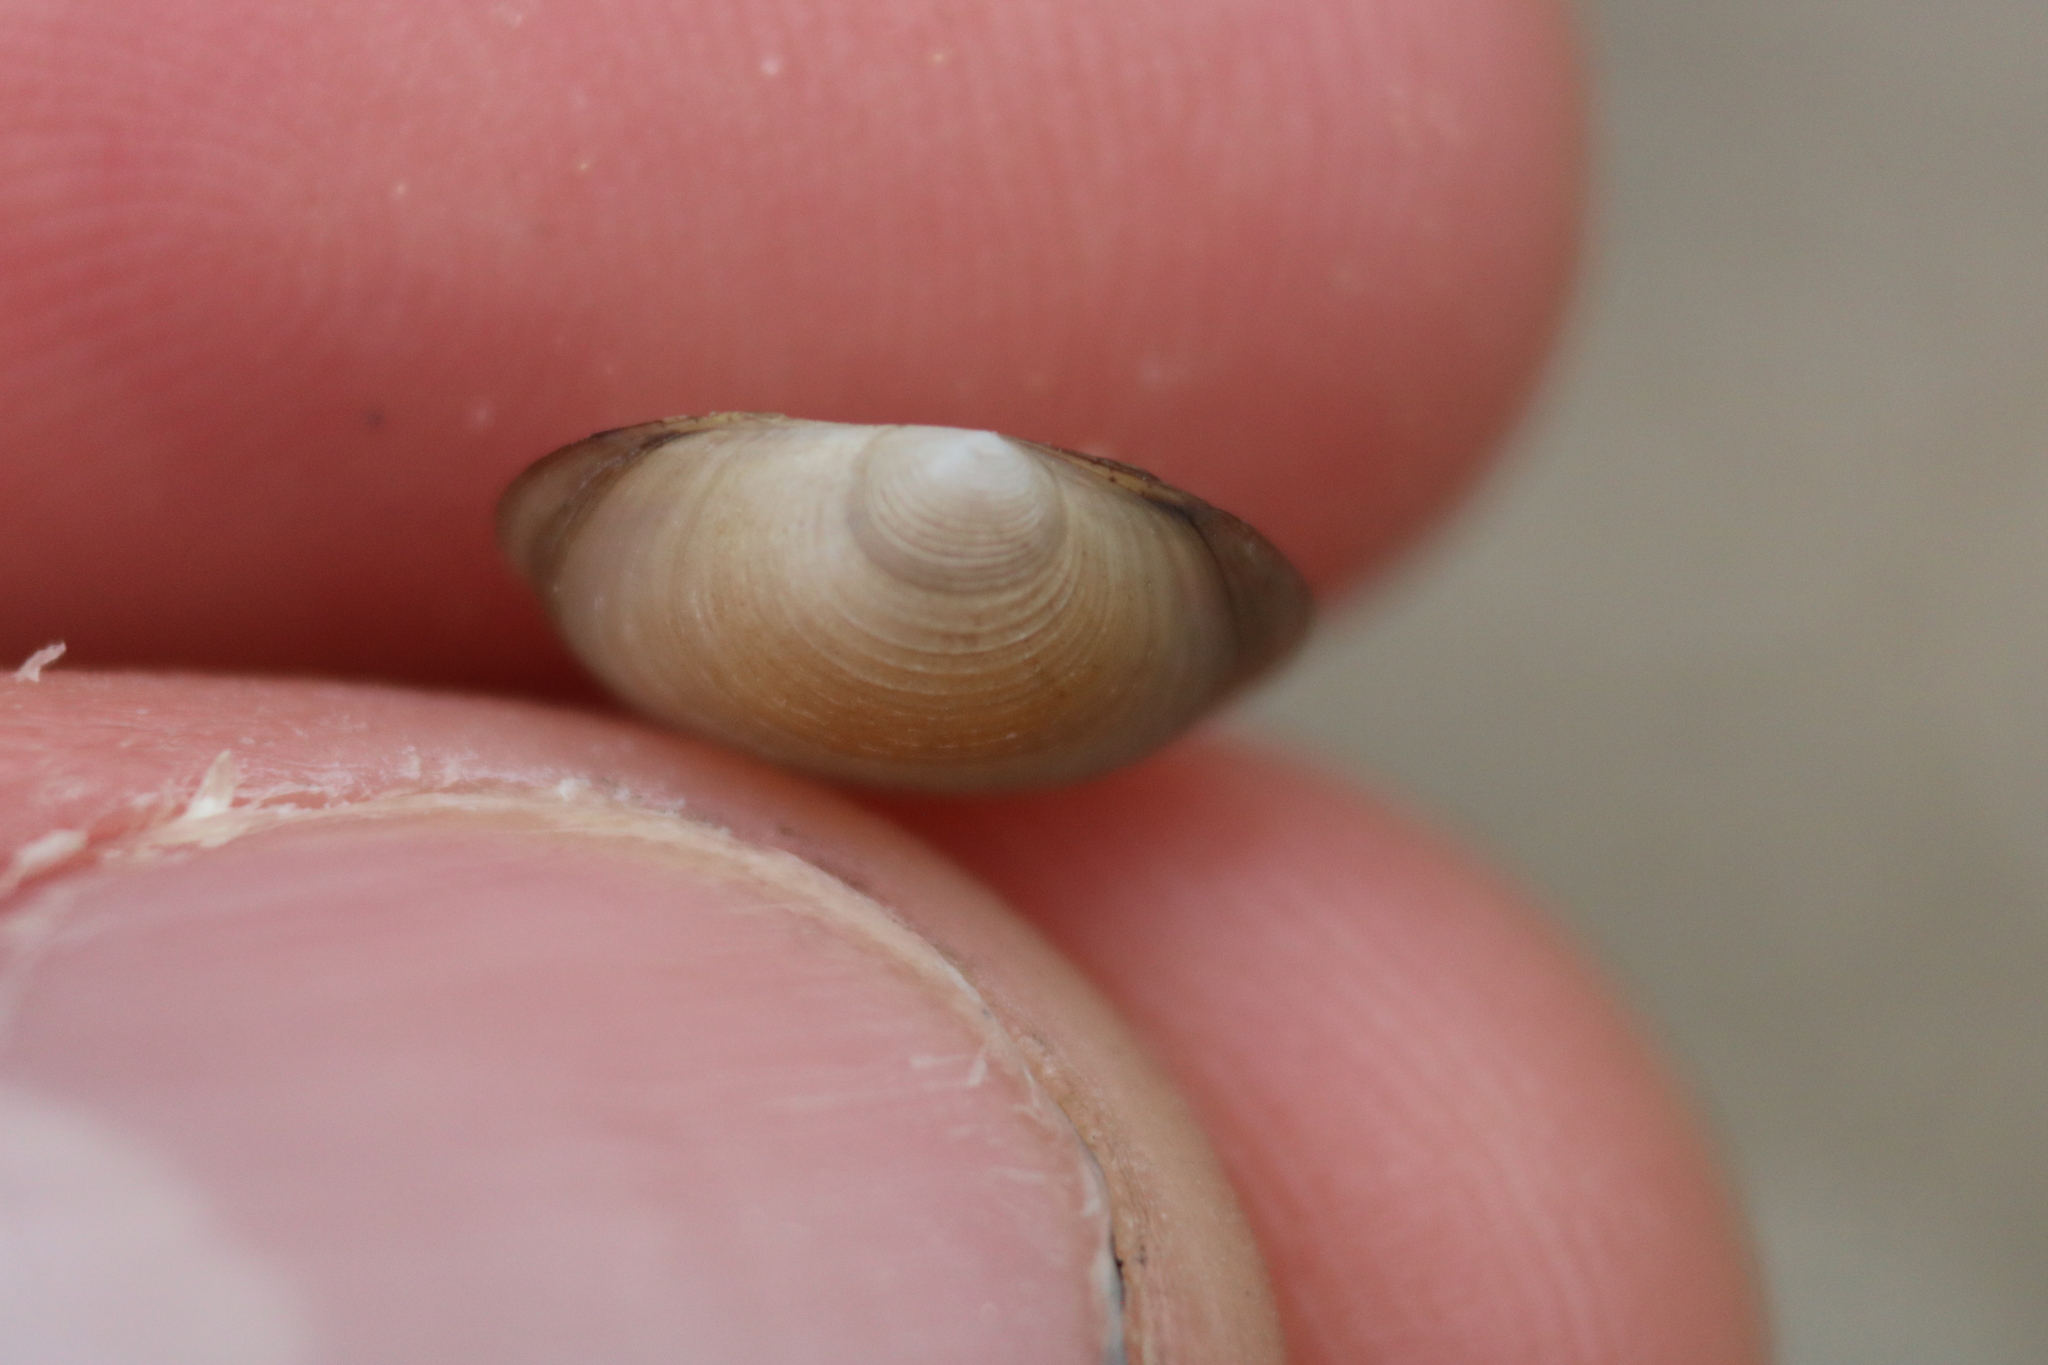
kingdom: Animalia
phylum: Mollusca
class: Bivalvia
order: Sphaeriida
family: Sphaeriidae
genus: Sphaerium
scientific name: Sphaerium simile
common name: Grooved fingernailclam
